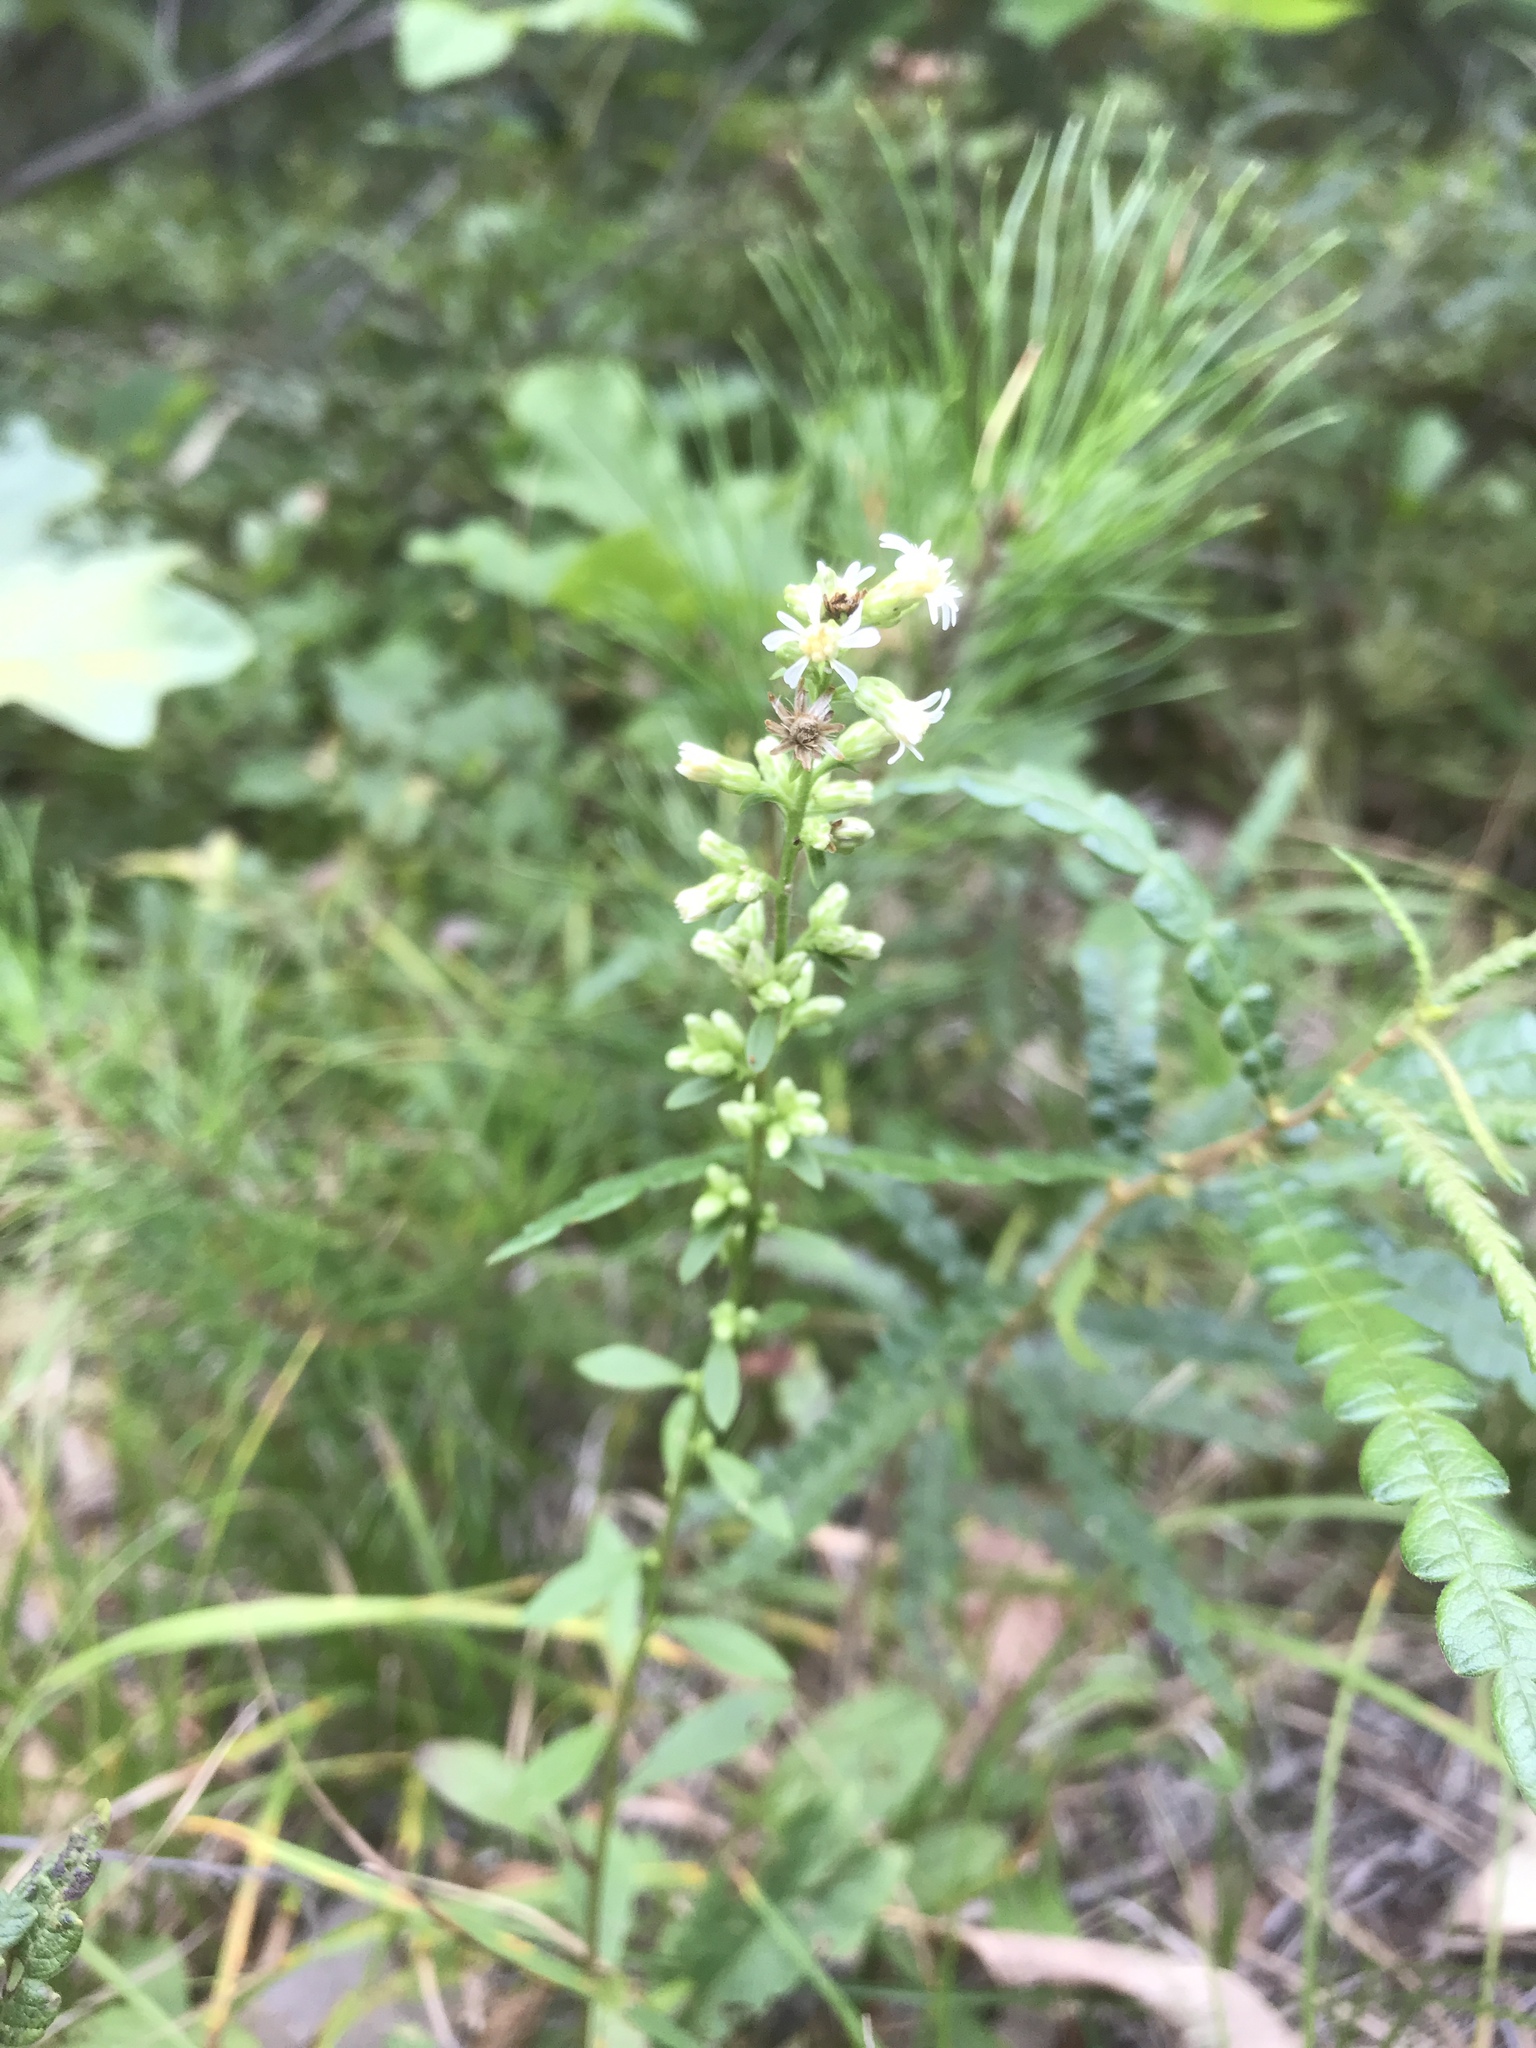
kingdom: Plantae
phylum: Tracheophyta
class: Magnoliopsida
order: Asterales
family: Asteraceae
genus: Solidago
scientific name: Solidago bicolor
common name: Silverrod
